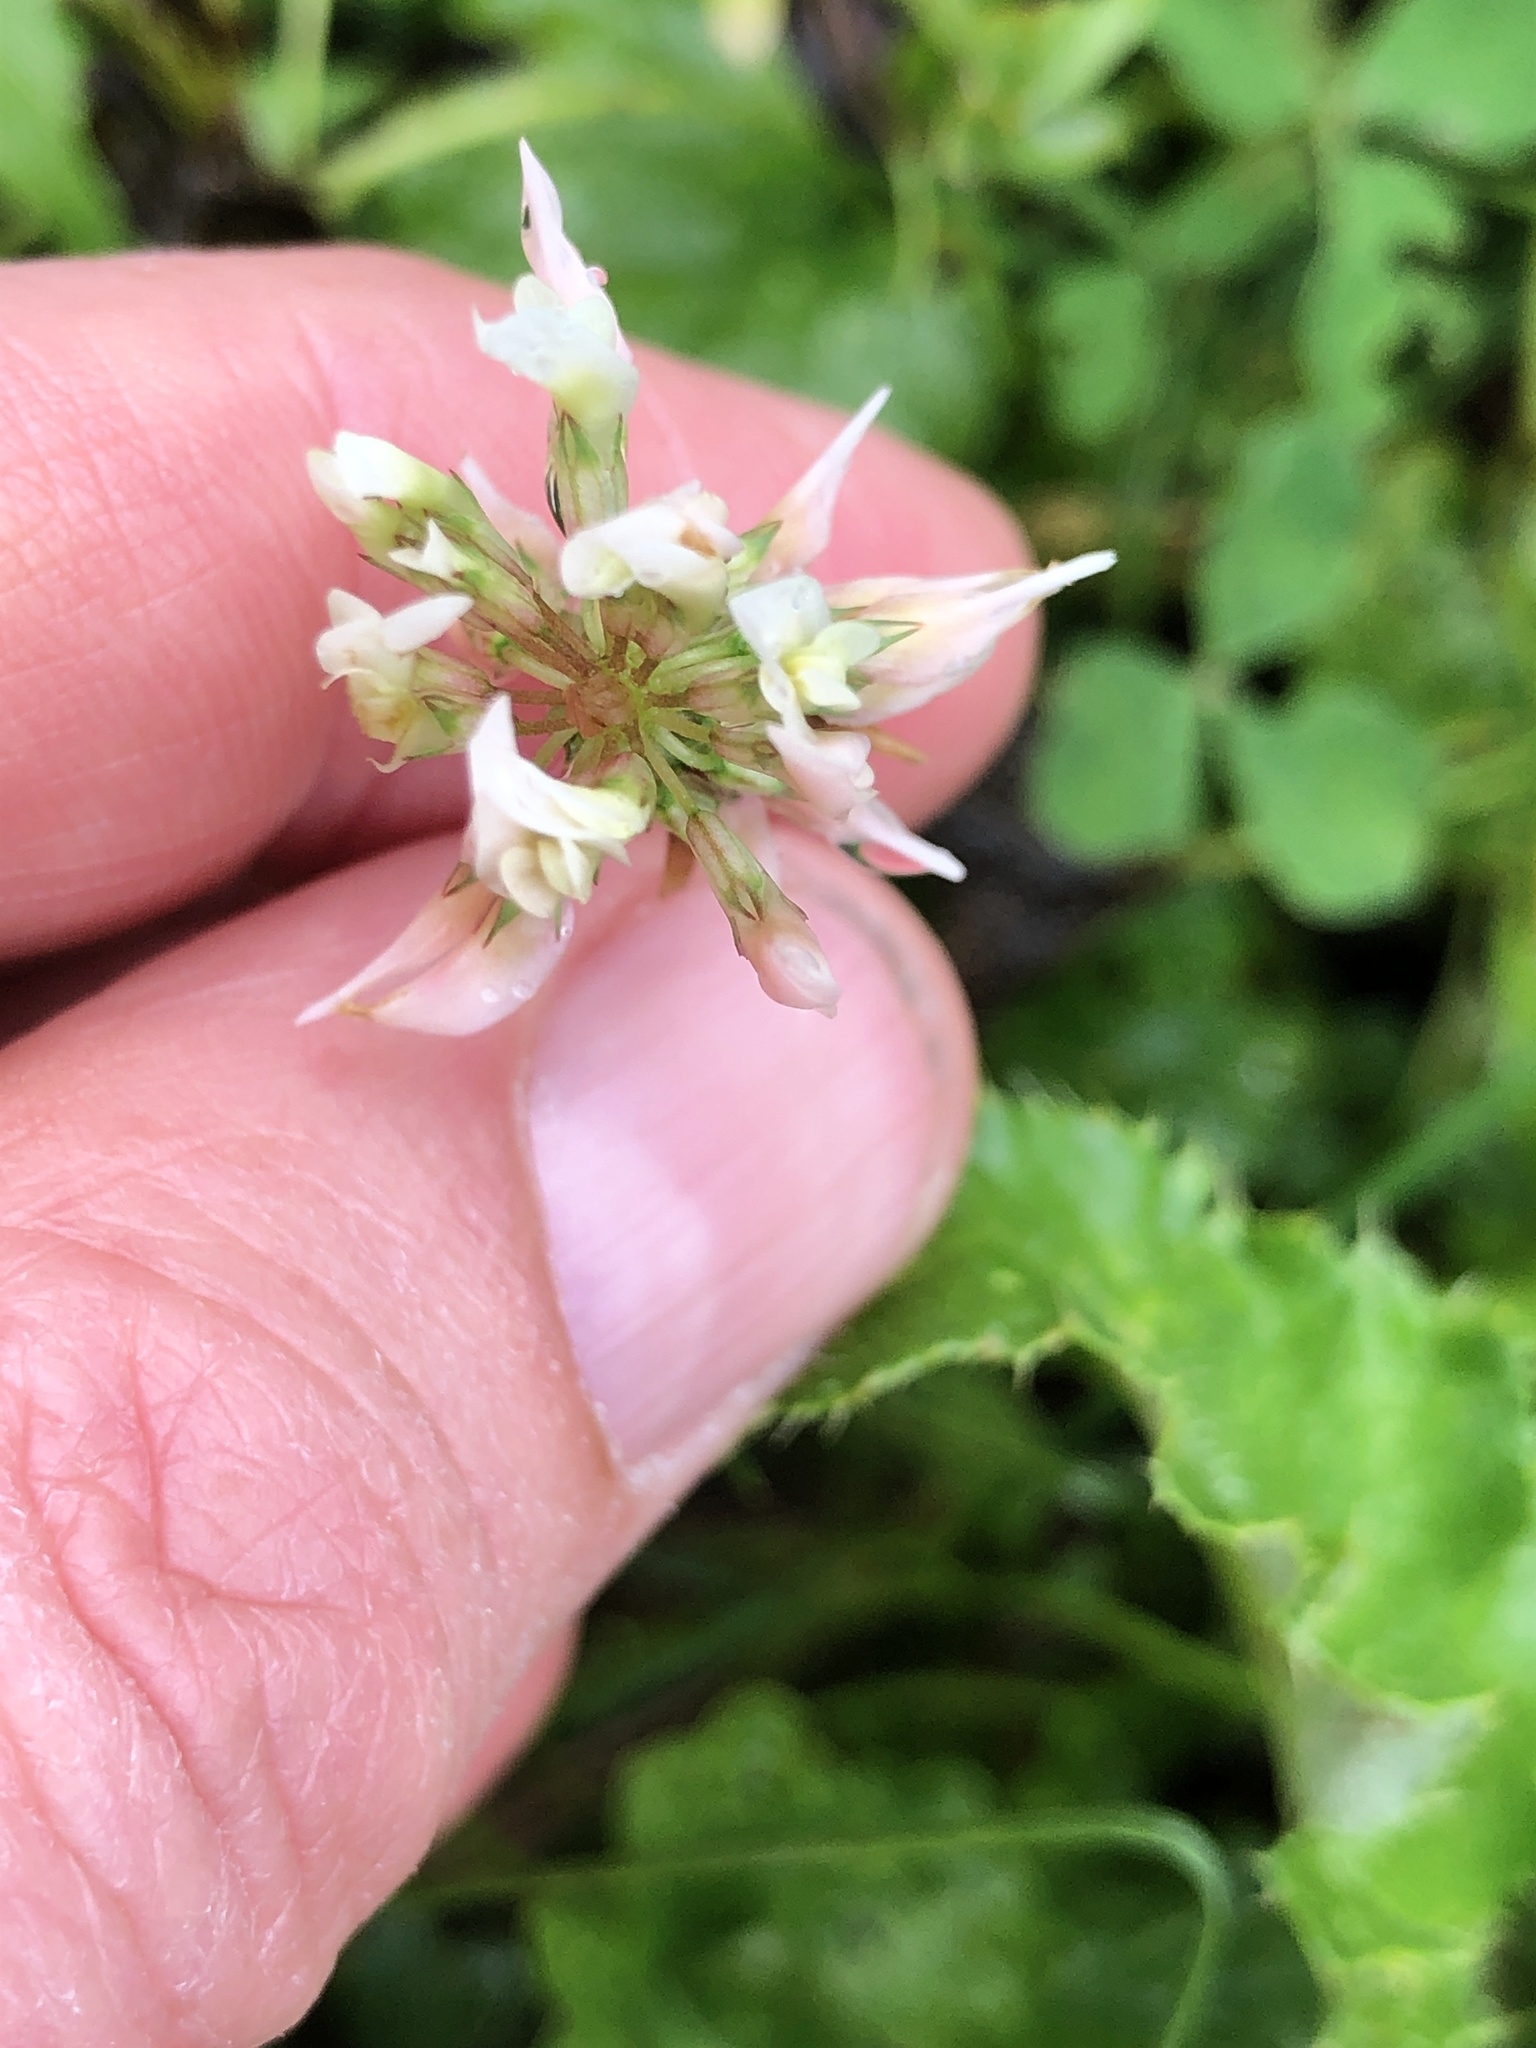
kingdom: Plantae
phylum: Tracheophyta
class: Magnoliopsida
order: Fabales
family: Fabaceae
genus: Trifolium
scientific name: Trifolium repens
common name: White clover
